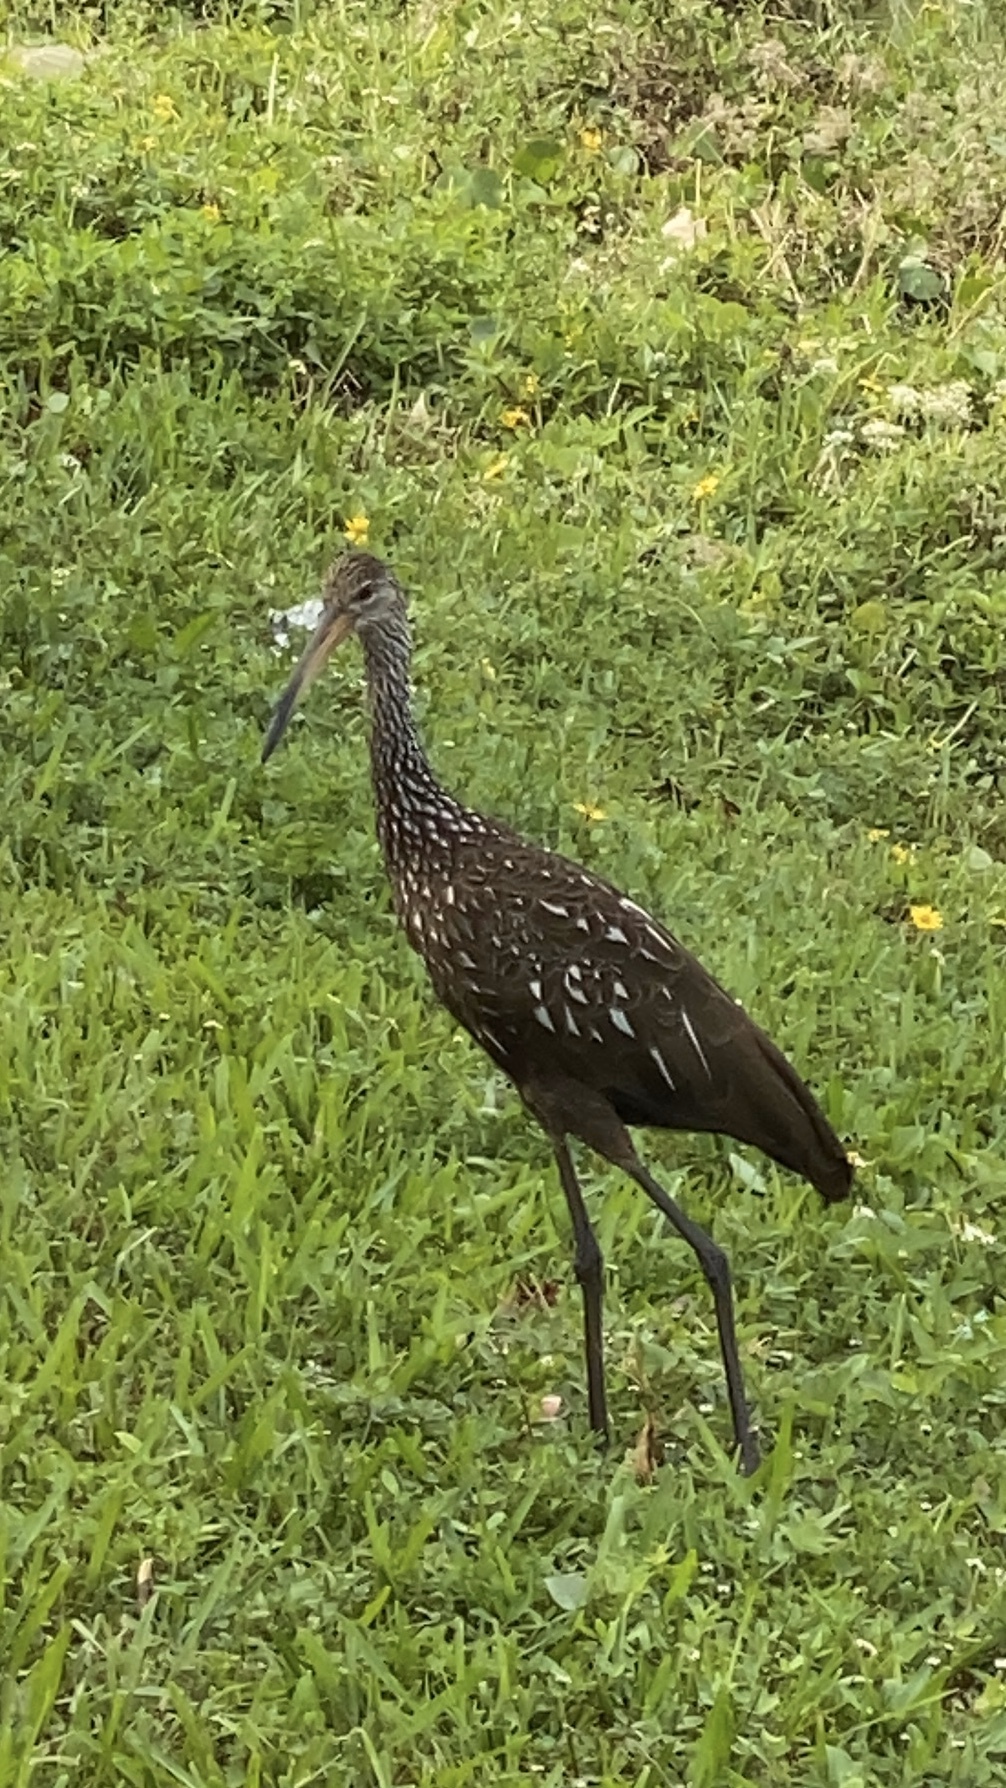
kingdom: Animalia
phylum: Chordata
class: Aves
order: Gruiformes
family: Aramidae
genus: Aramus
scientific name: Aramus guarauna
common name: Limpkin
